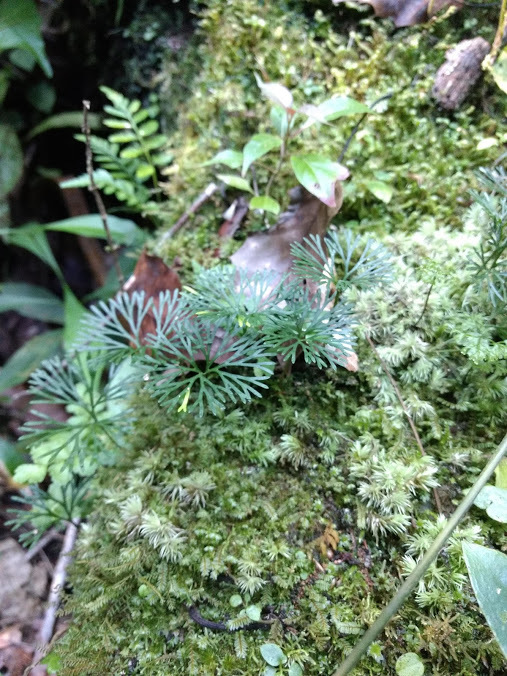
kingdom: Plantae
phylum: Tracheophyta
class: Polypodiopsida
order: Polypodiales
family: Dryopteridaceae
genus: Elaphoglossum
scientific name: Elaphoglossum peltatum
